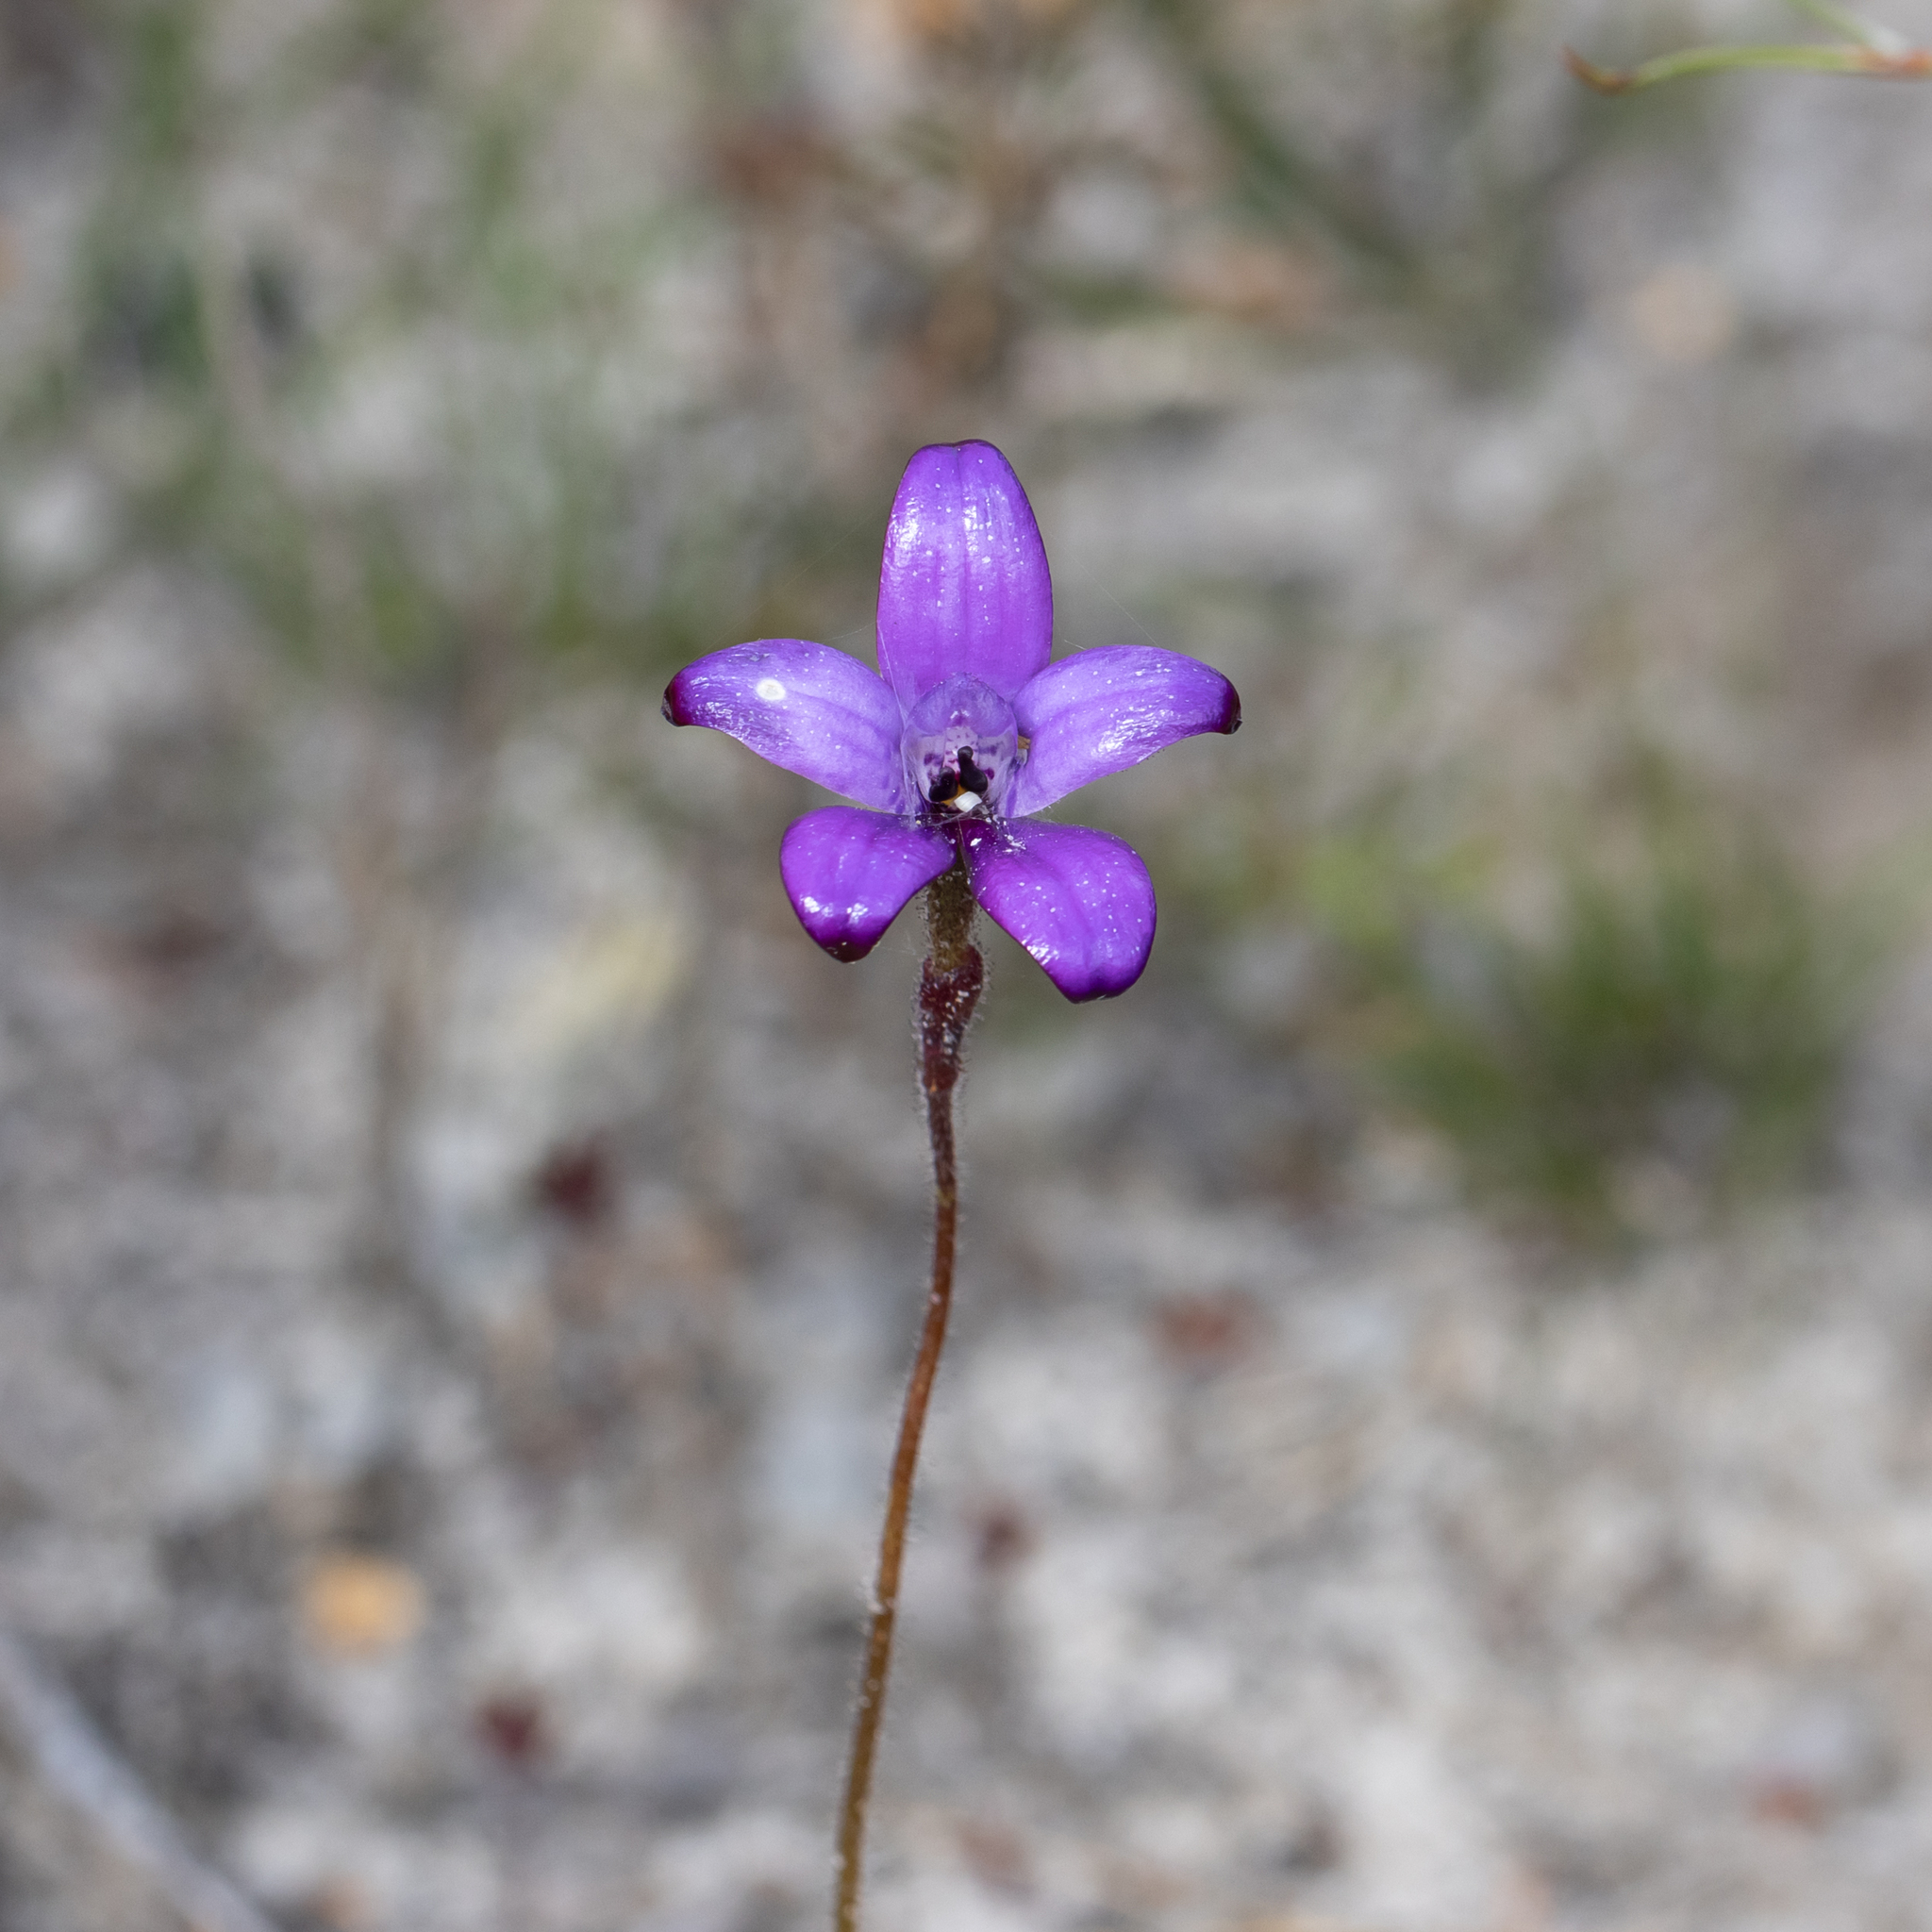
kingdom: Plantae
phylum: Tracheophyta
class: Liliopsida
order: Asparagales
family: Orchidaceae
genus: Caladenia
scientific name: Caladenia brunonis
